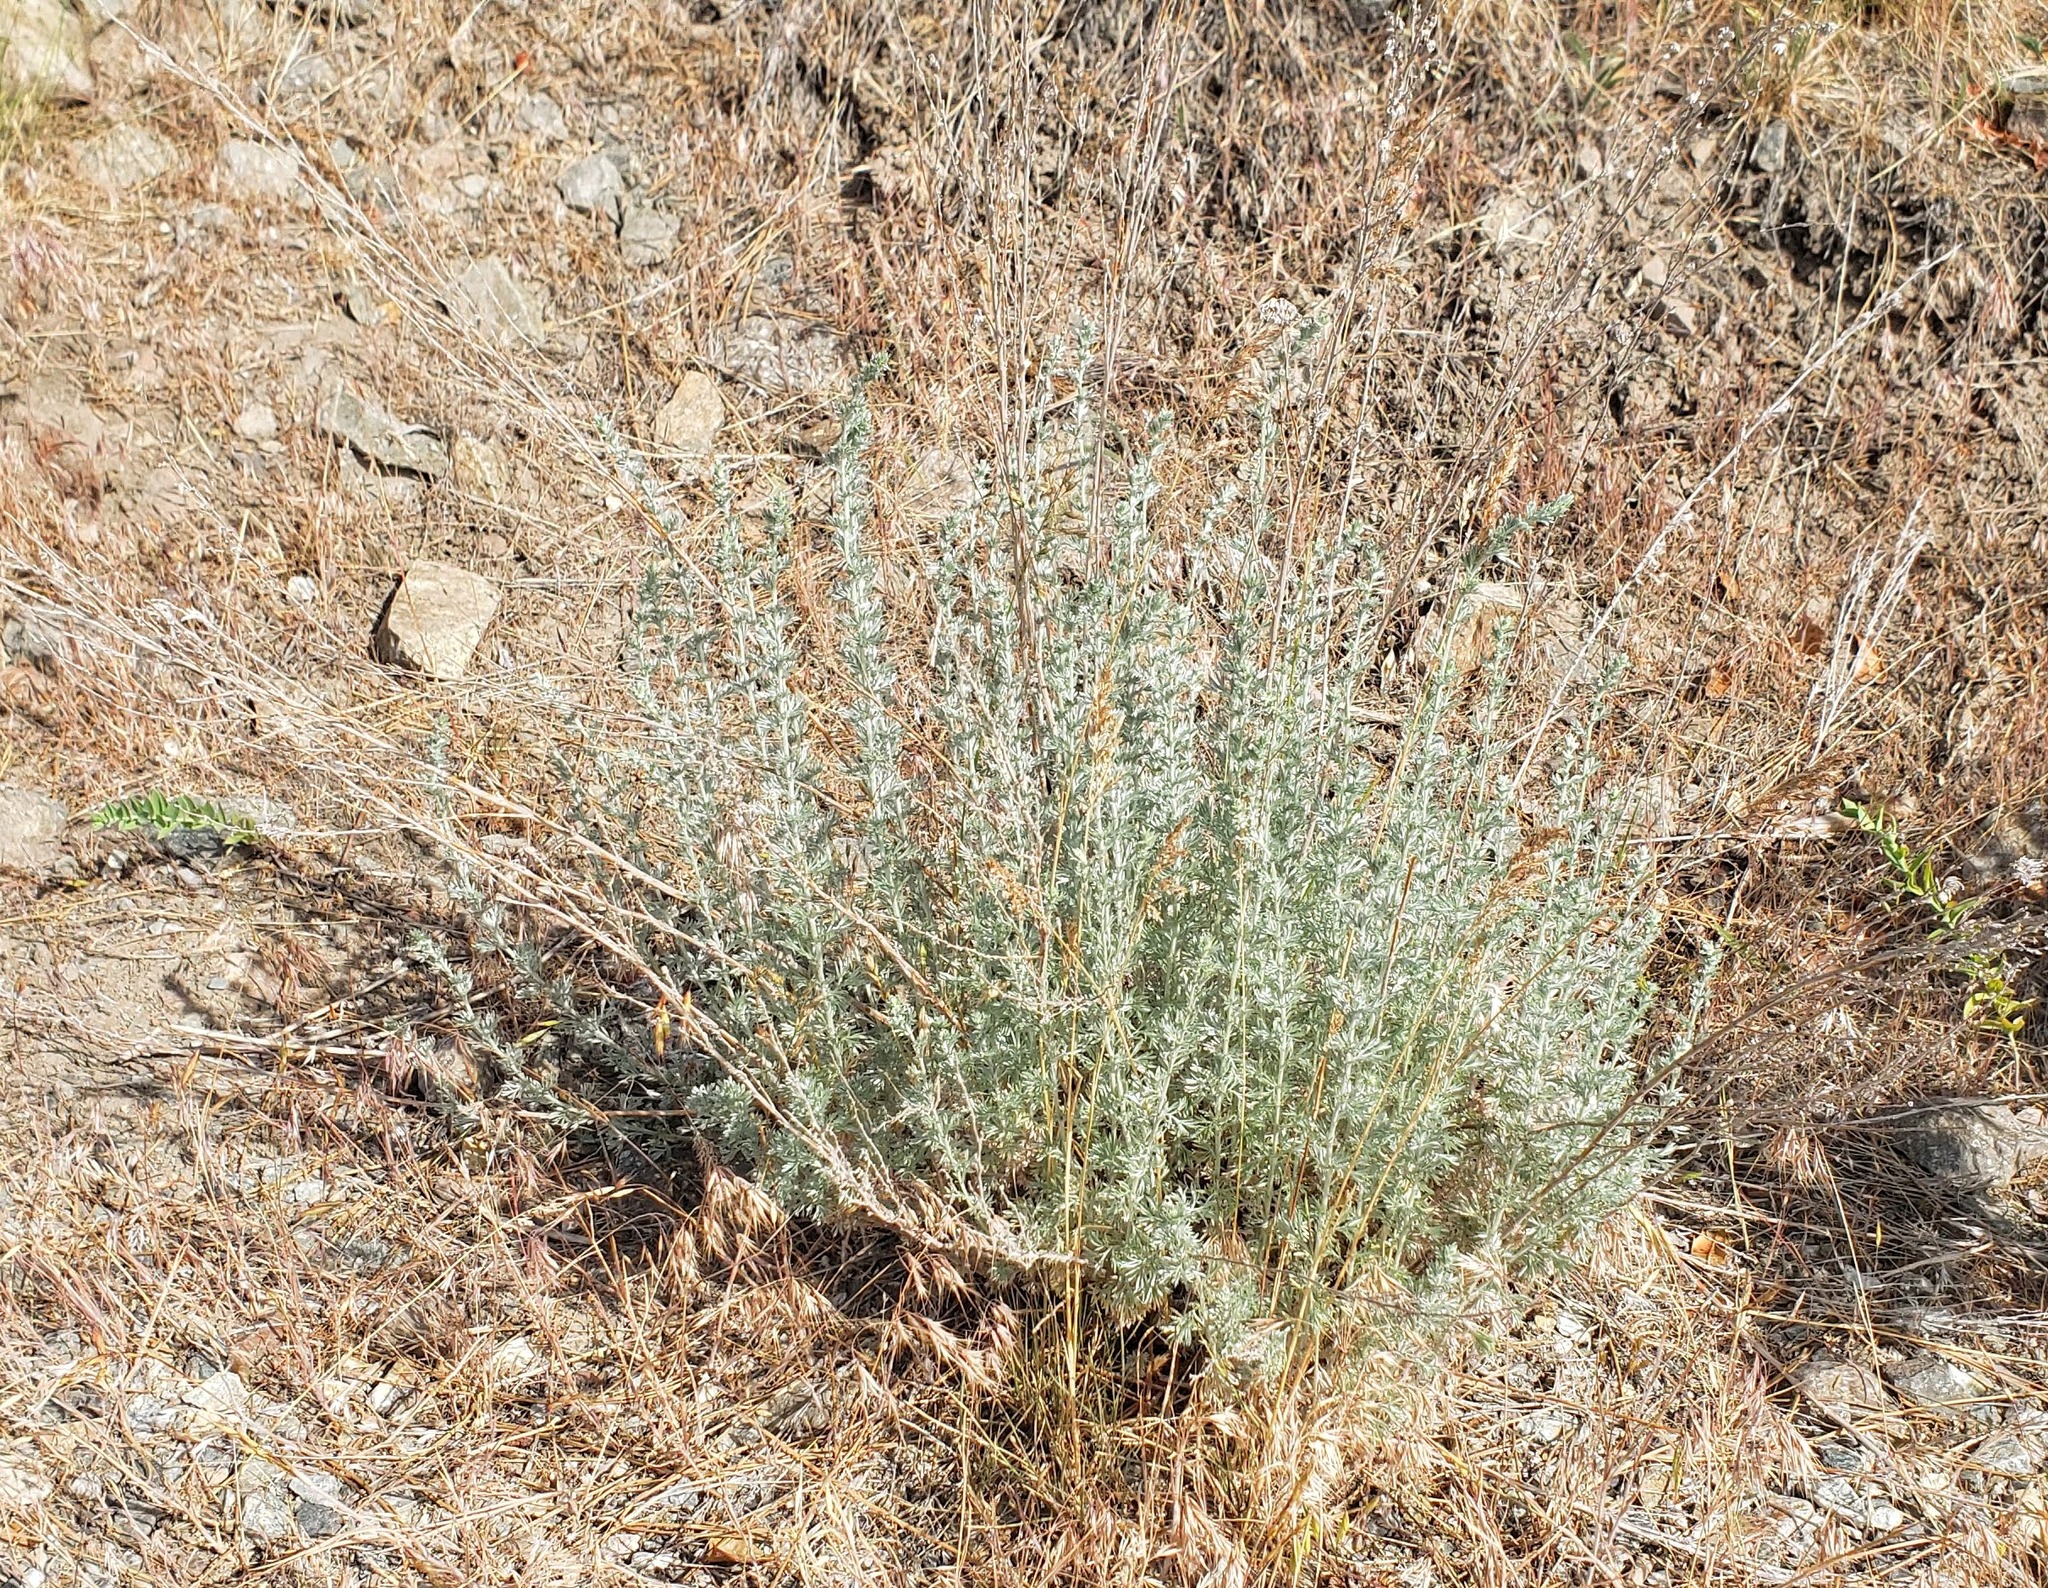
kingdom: Plantae
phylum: Tracheophyta
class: Magnoliopsida
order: Asterales
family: Asteraceae
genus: Artemisia
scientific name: Artemisia frigida
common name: Prairie sagewort
